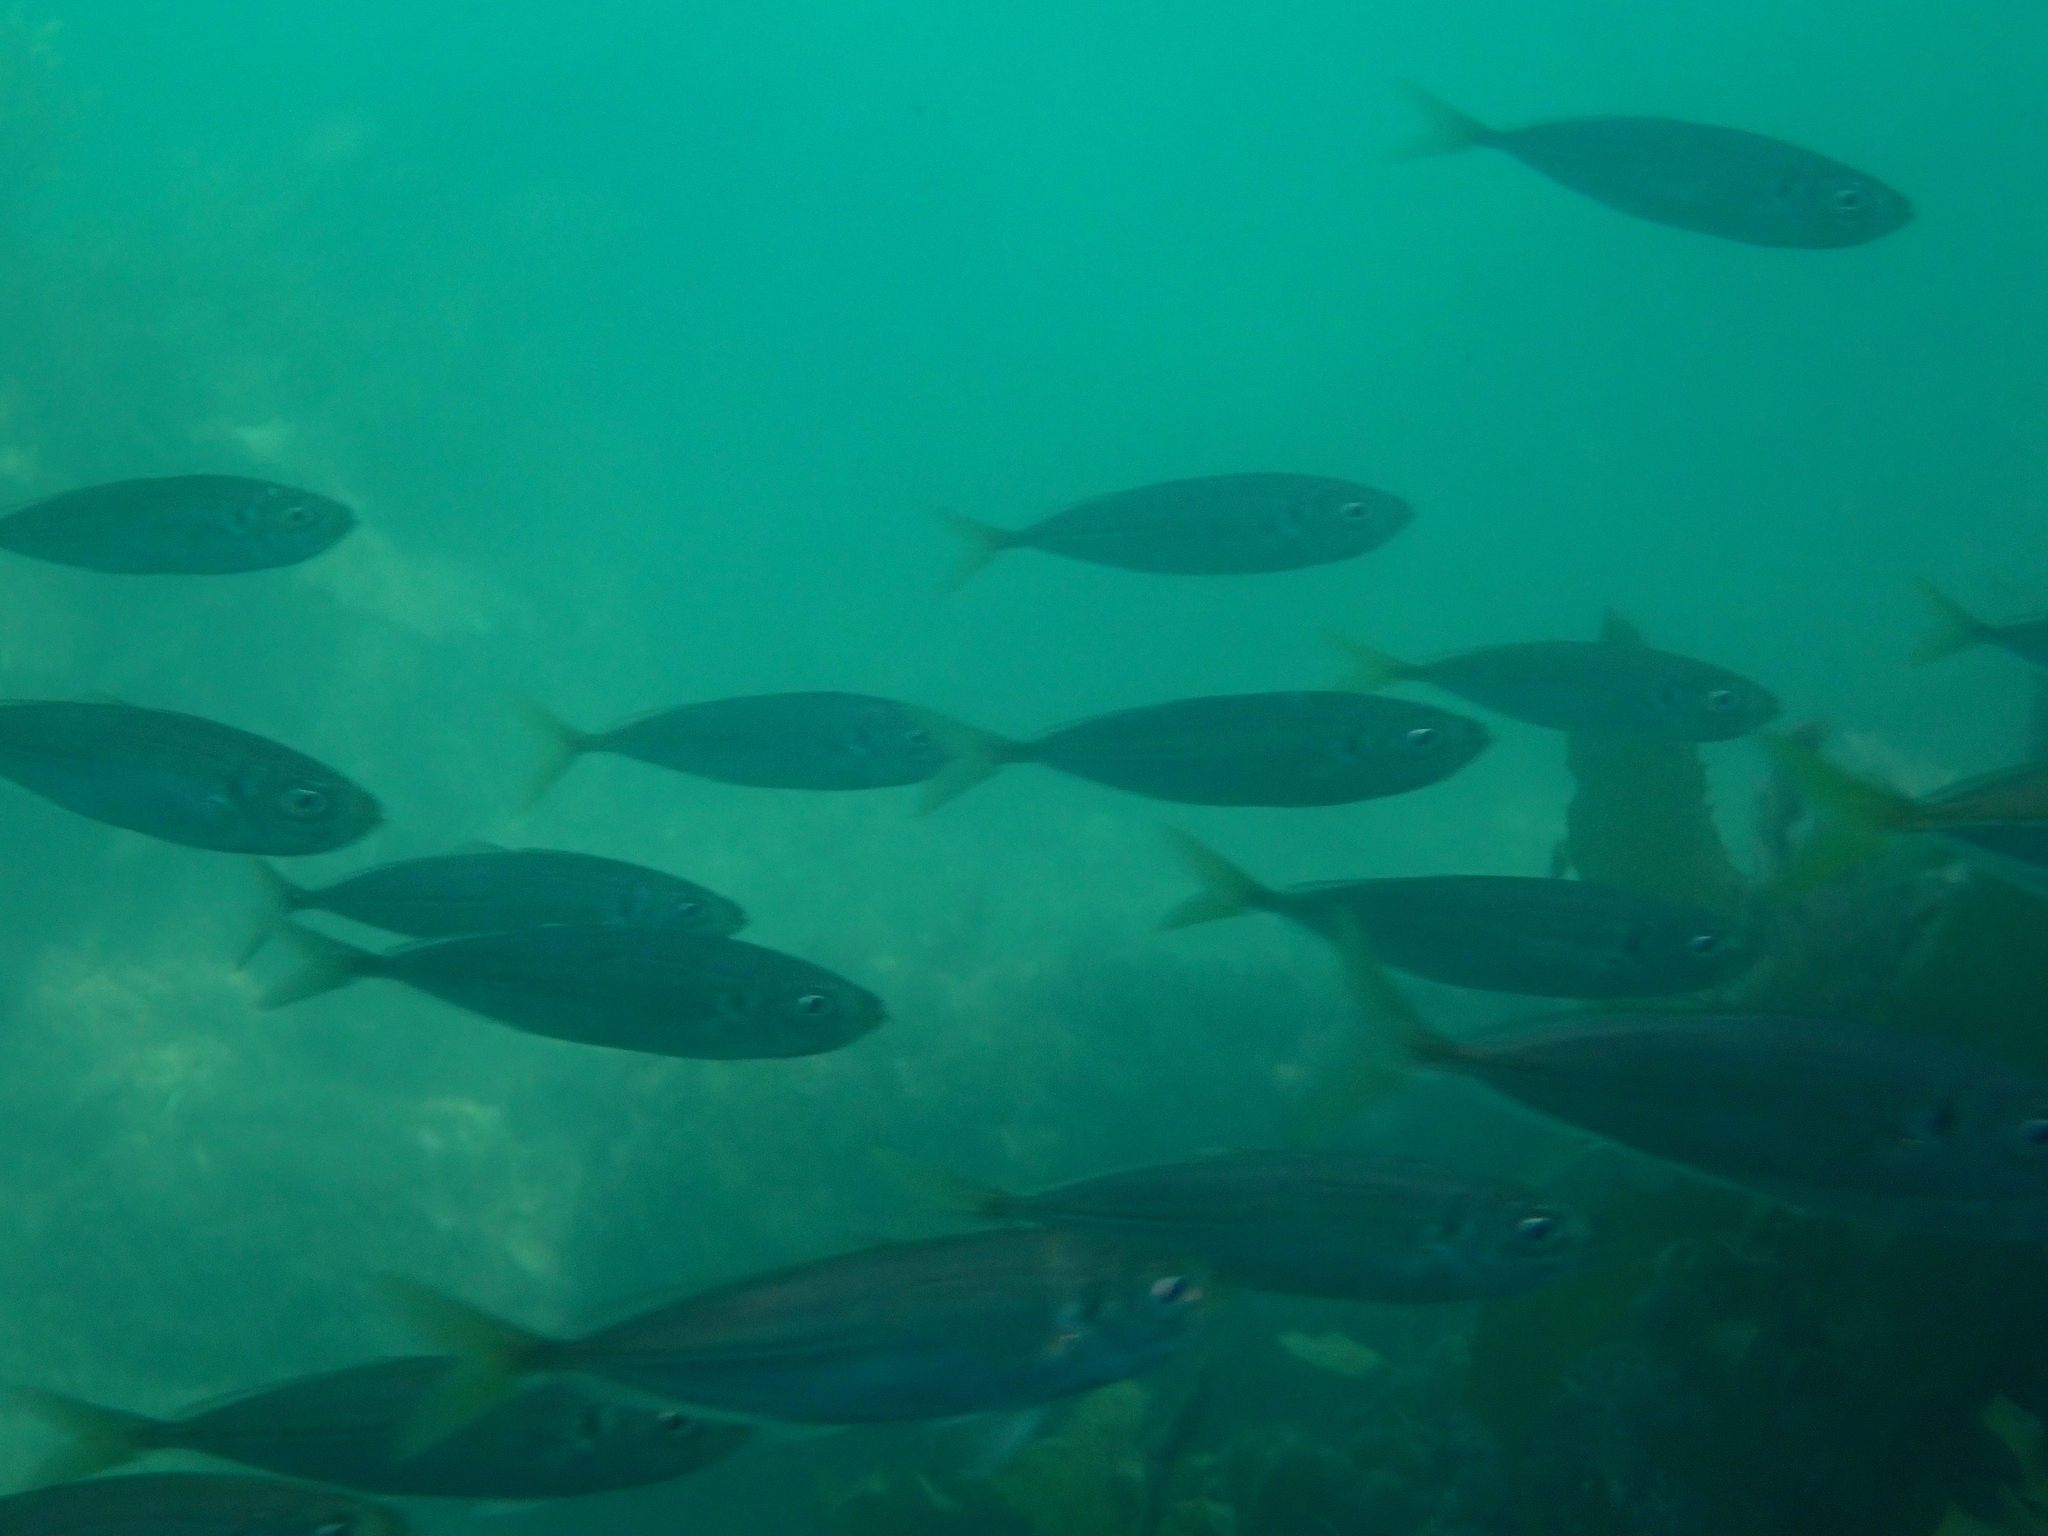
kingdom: Animalia
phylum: Chordata
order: Perciformes
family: Carangidae
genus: Trachurus
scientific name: Trachurus novaezelandiae
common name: Yellowtail horse mackerel
